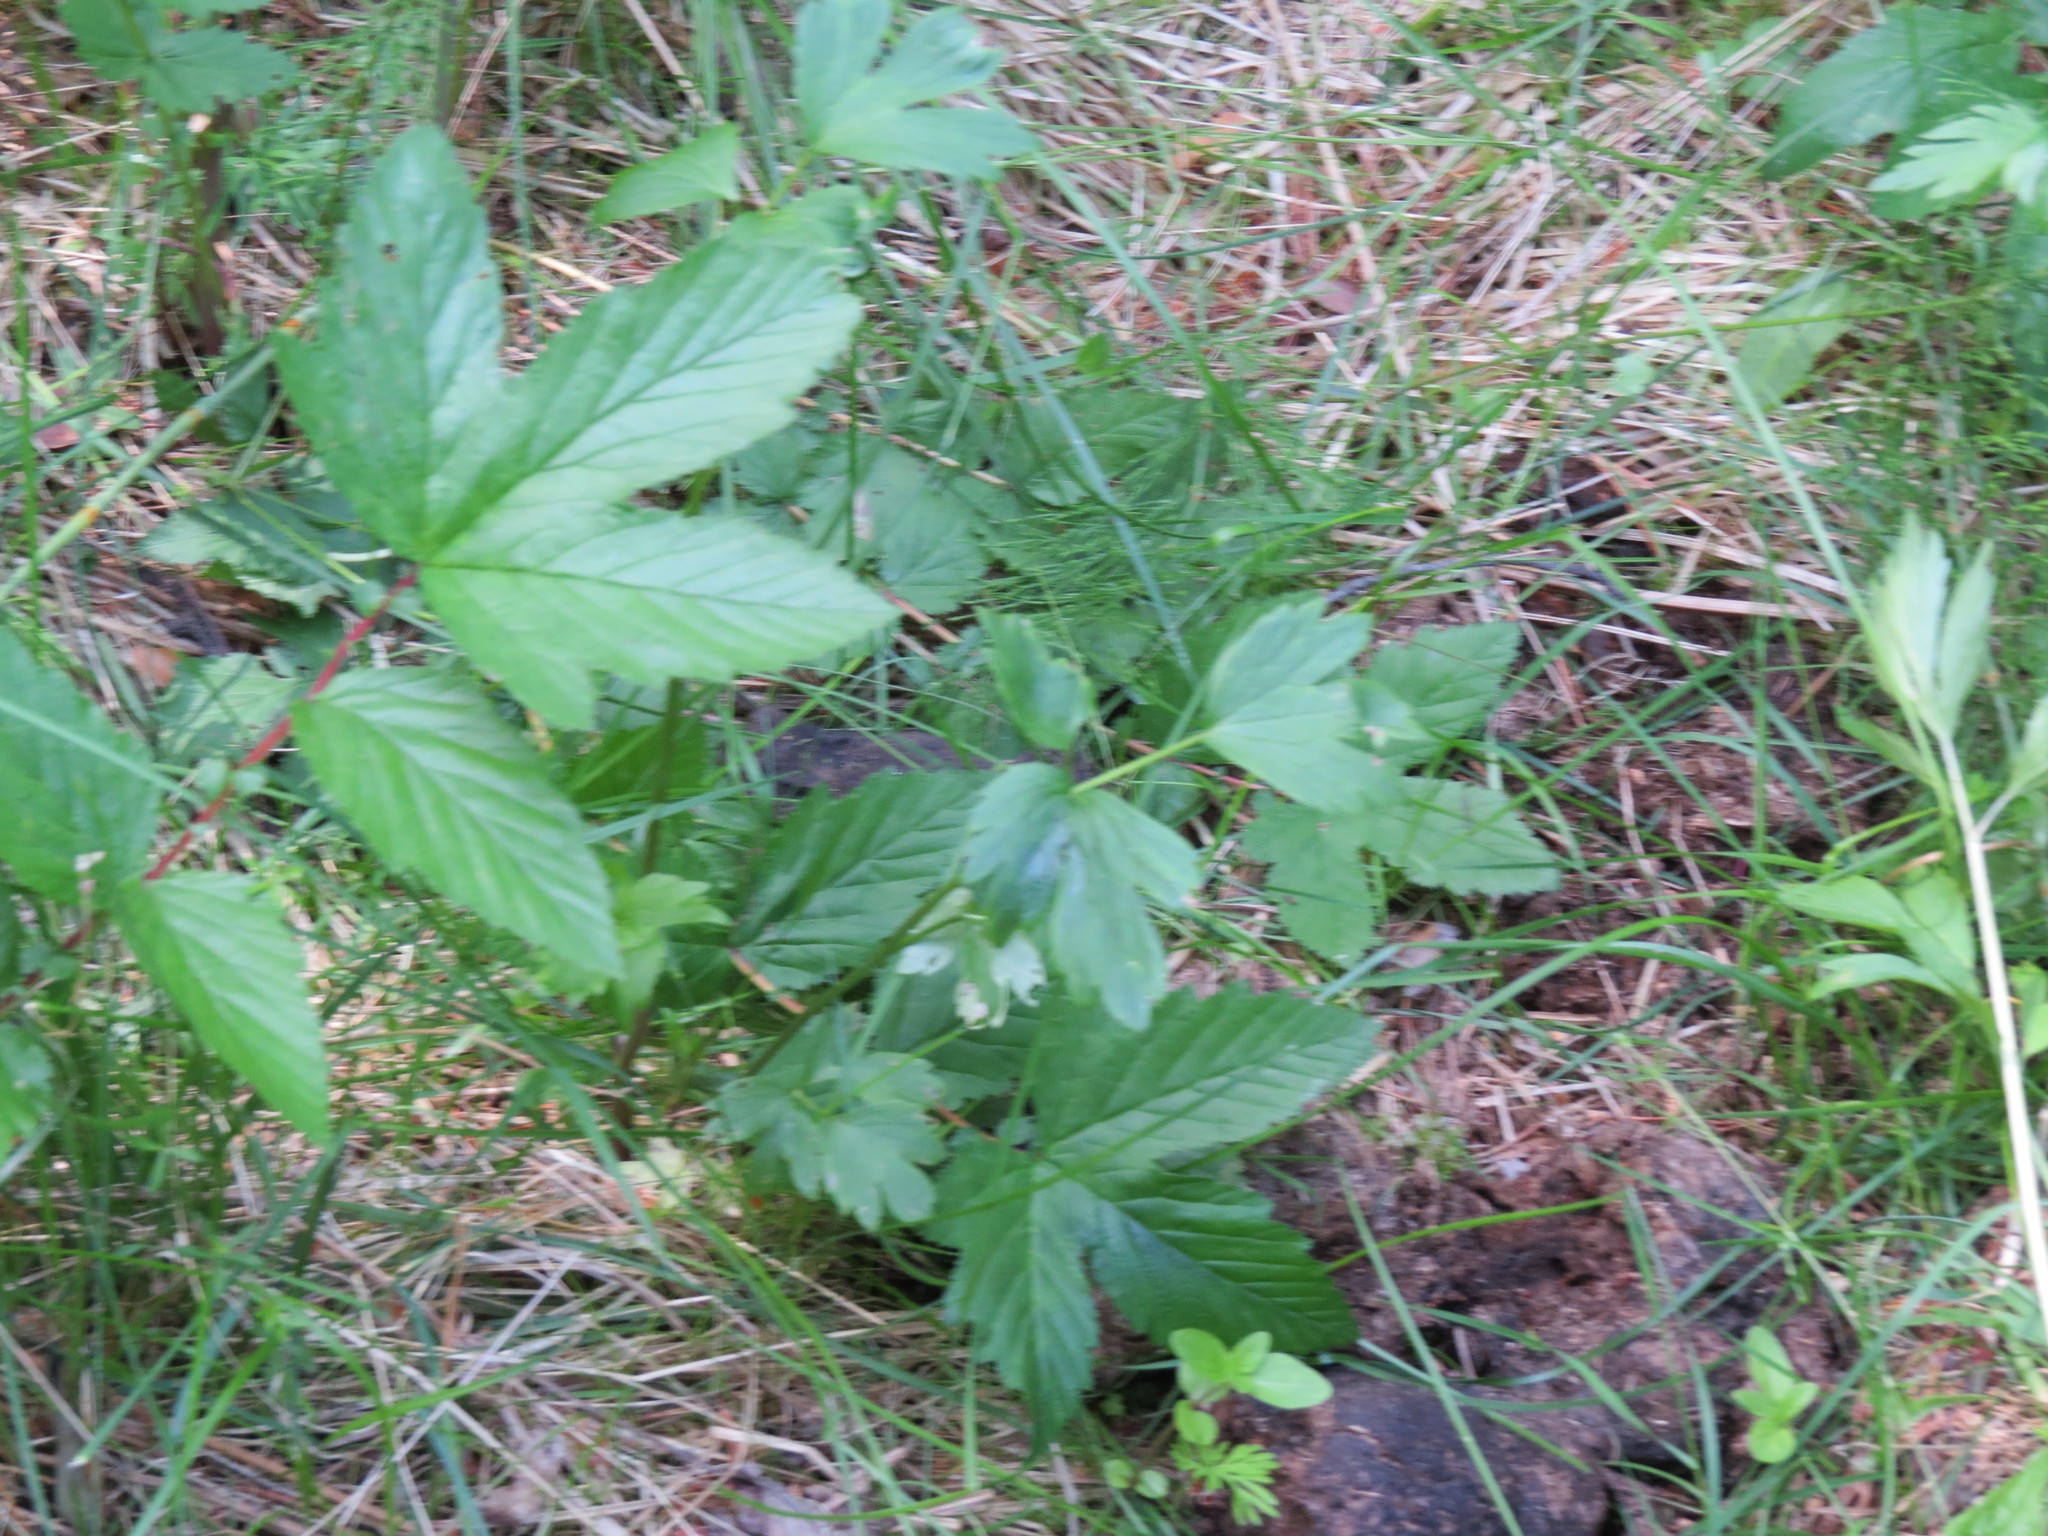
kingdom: Plantae
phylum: Tracheophyta
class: Magnoliopsida
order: Rosales
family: Rosaceae
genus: Filipendula
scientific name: Filipendula ulmaria
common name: Meadowsweet
